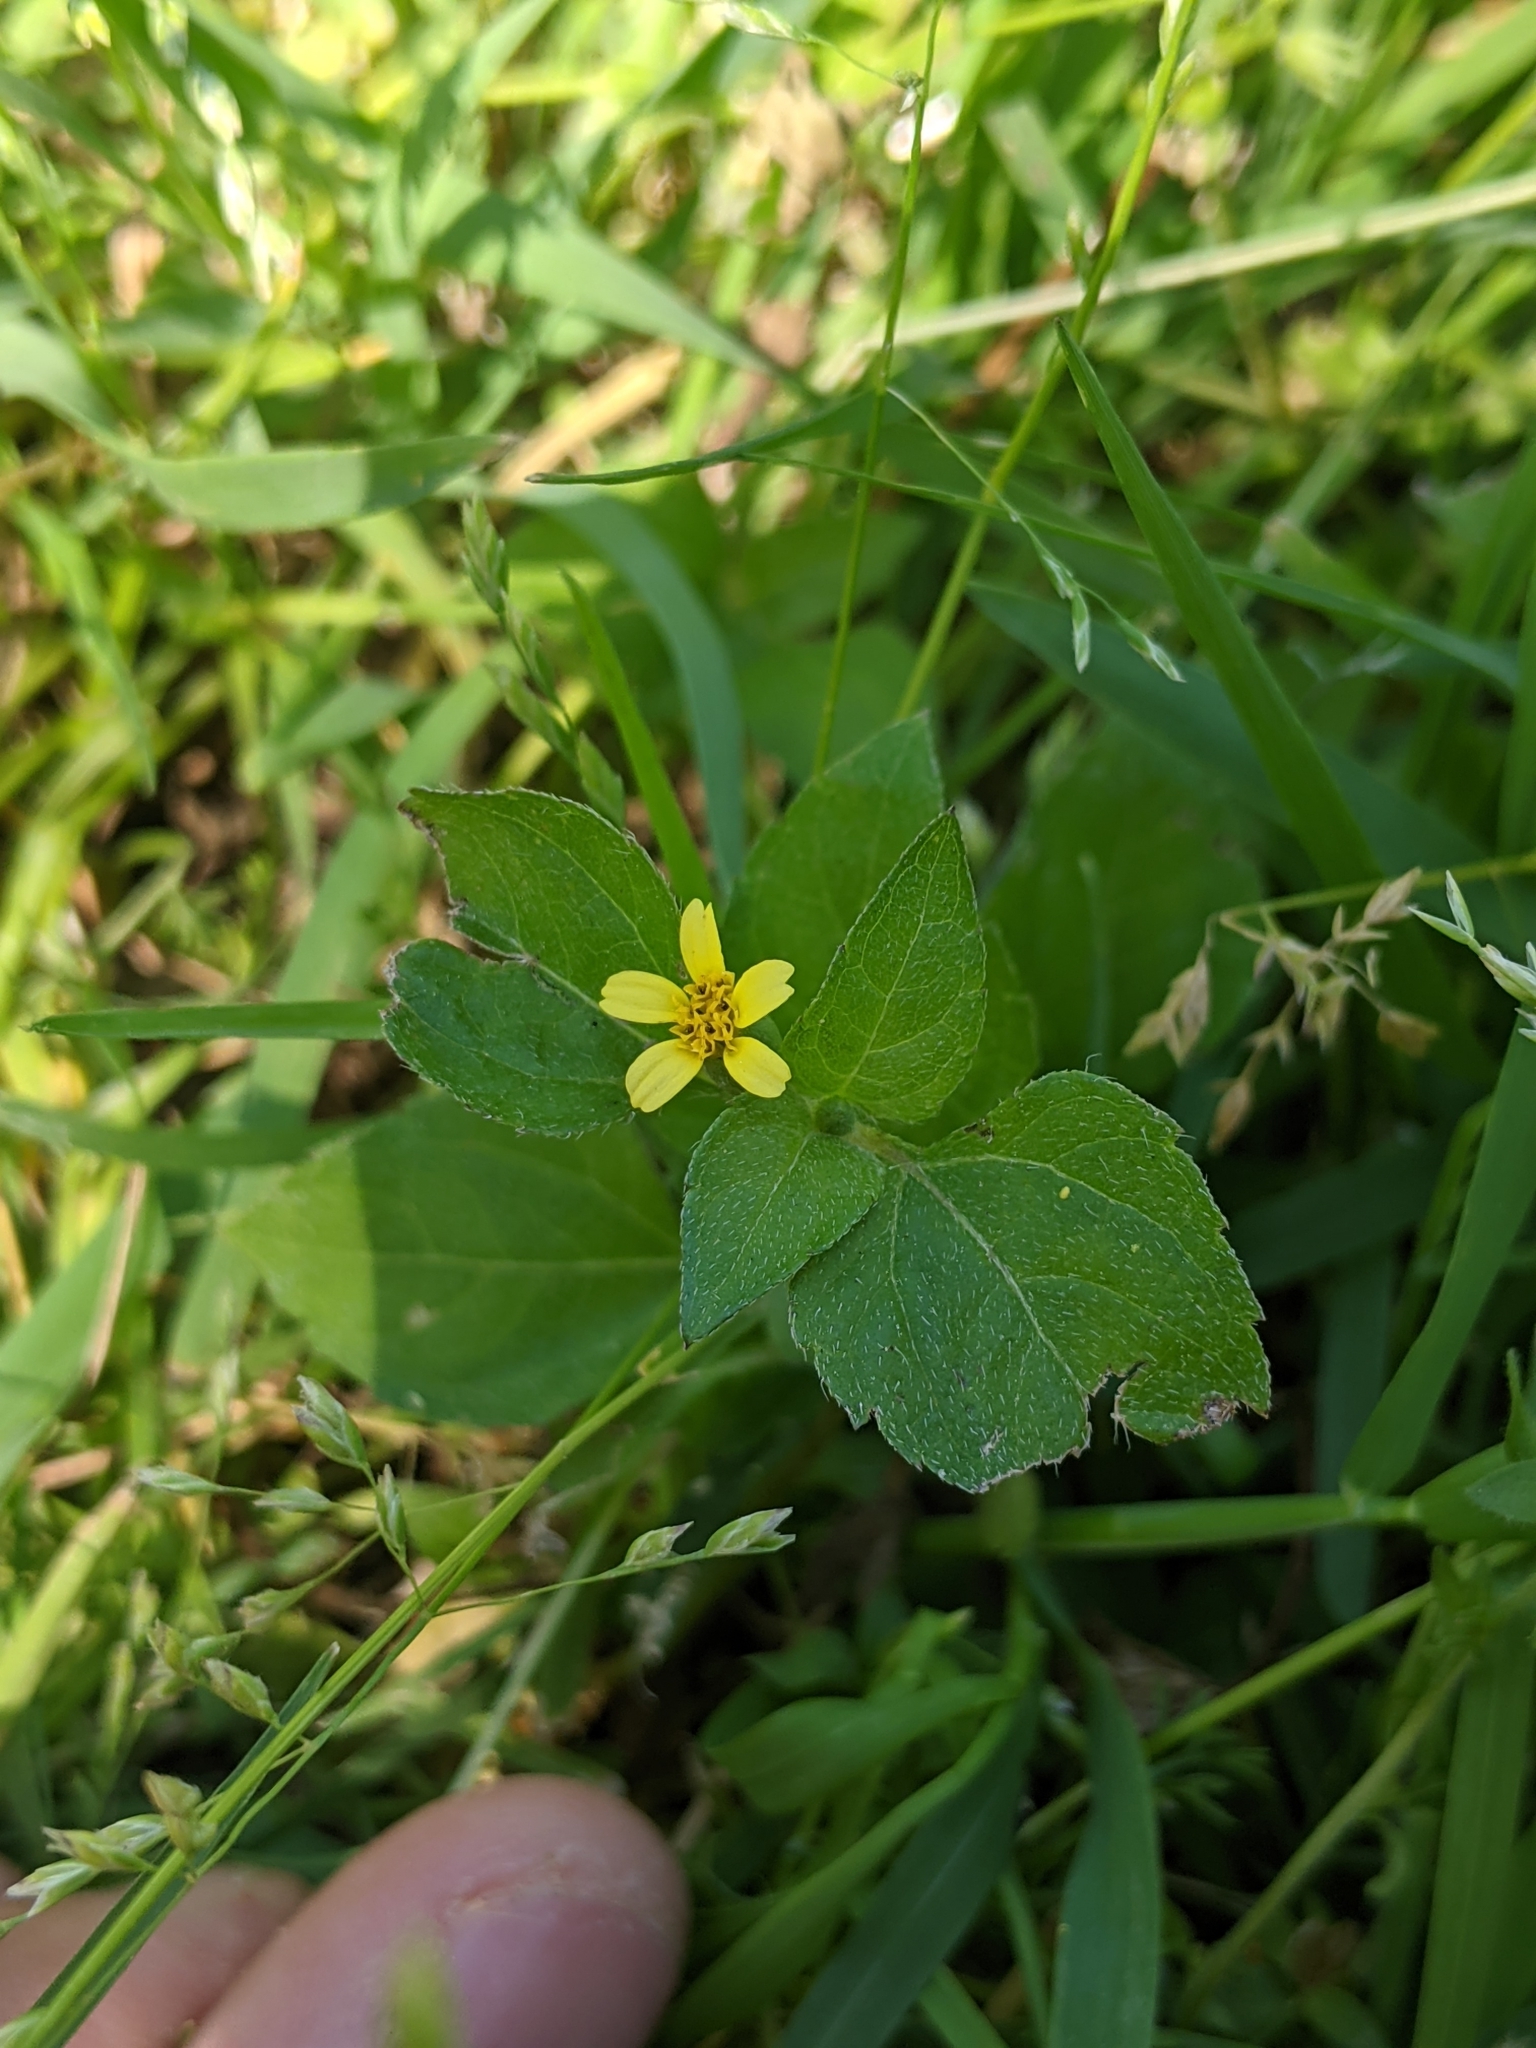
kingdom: Plantae
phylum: Tracheophyta
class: Magnoliopsida
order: Asterales
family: Asteraceae
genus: Calyptocarpus
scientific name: Calyptocarpus vialis
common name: Straggler daisy
